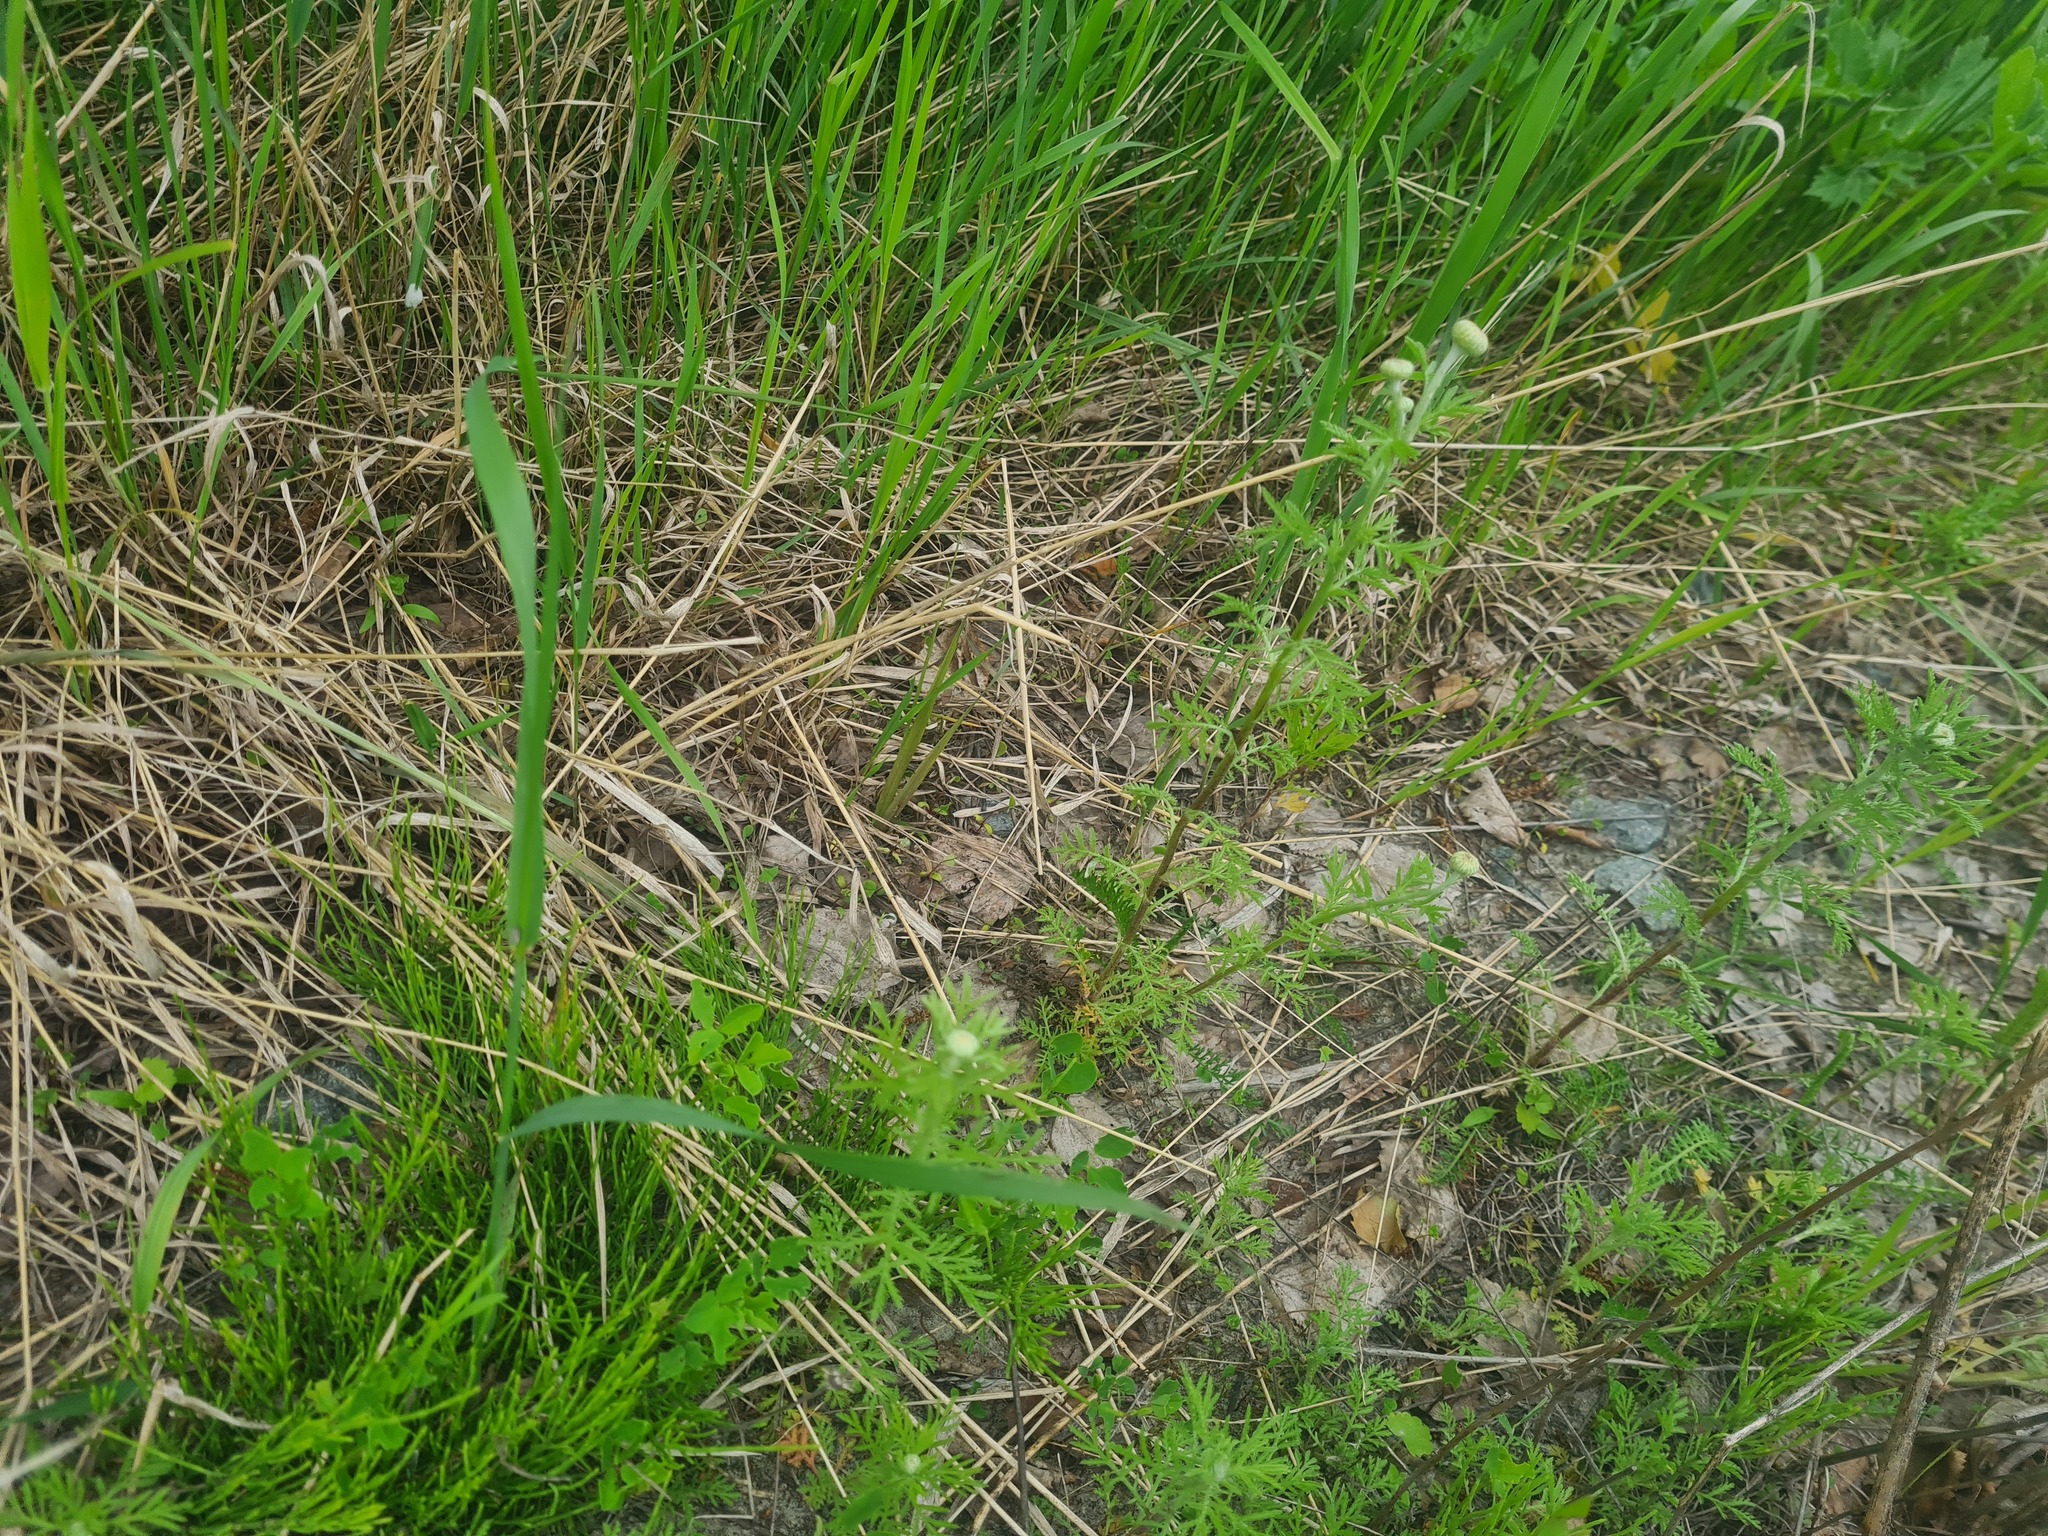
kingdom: Plantae
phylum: Tracheophyta
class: Magnoliopsida
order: Asterales
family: Asteraceae
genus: Cota
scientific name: Cota tinctoria
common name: Golden chamomile
